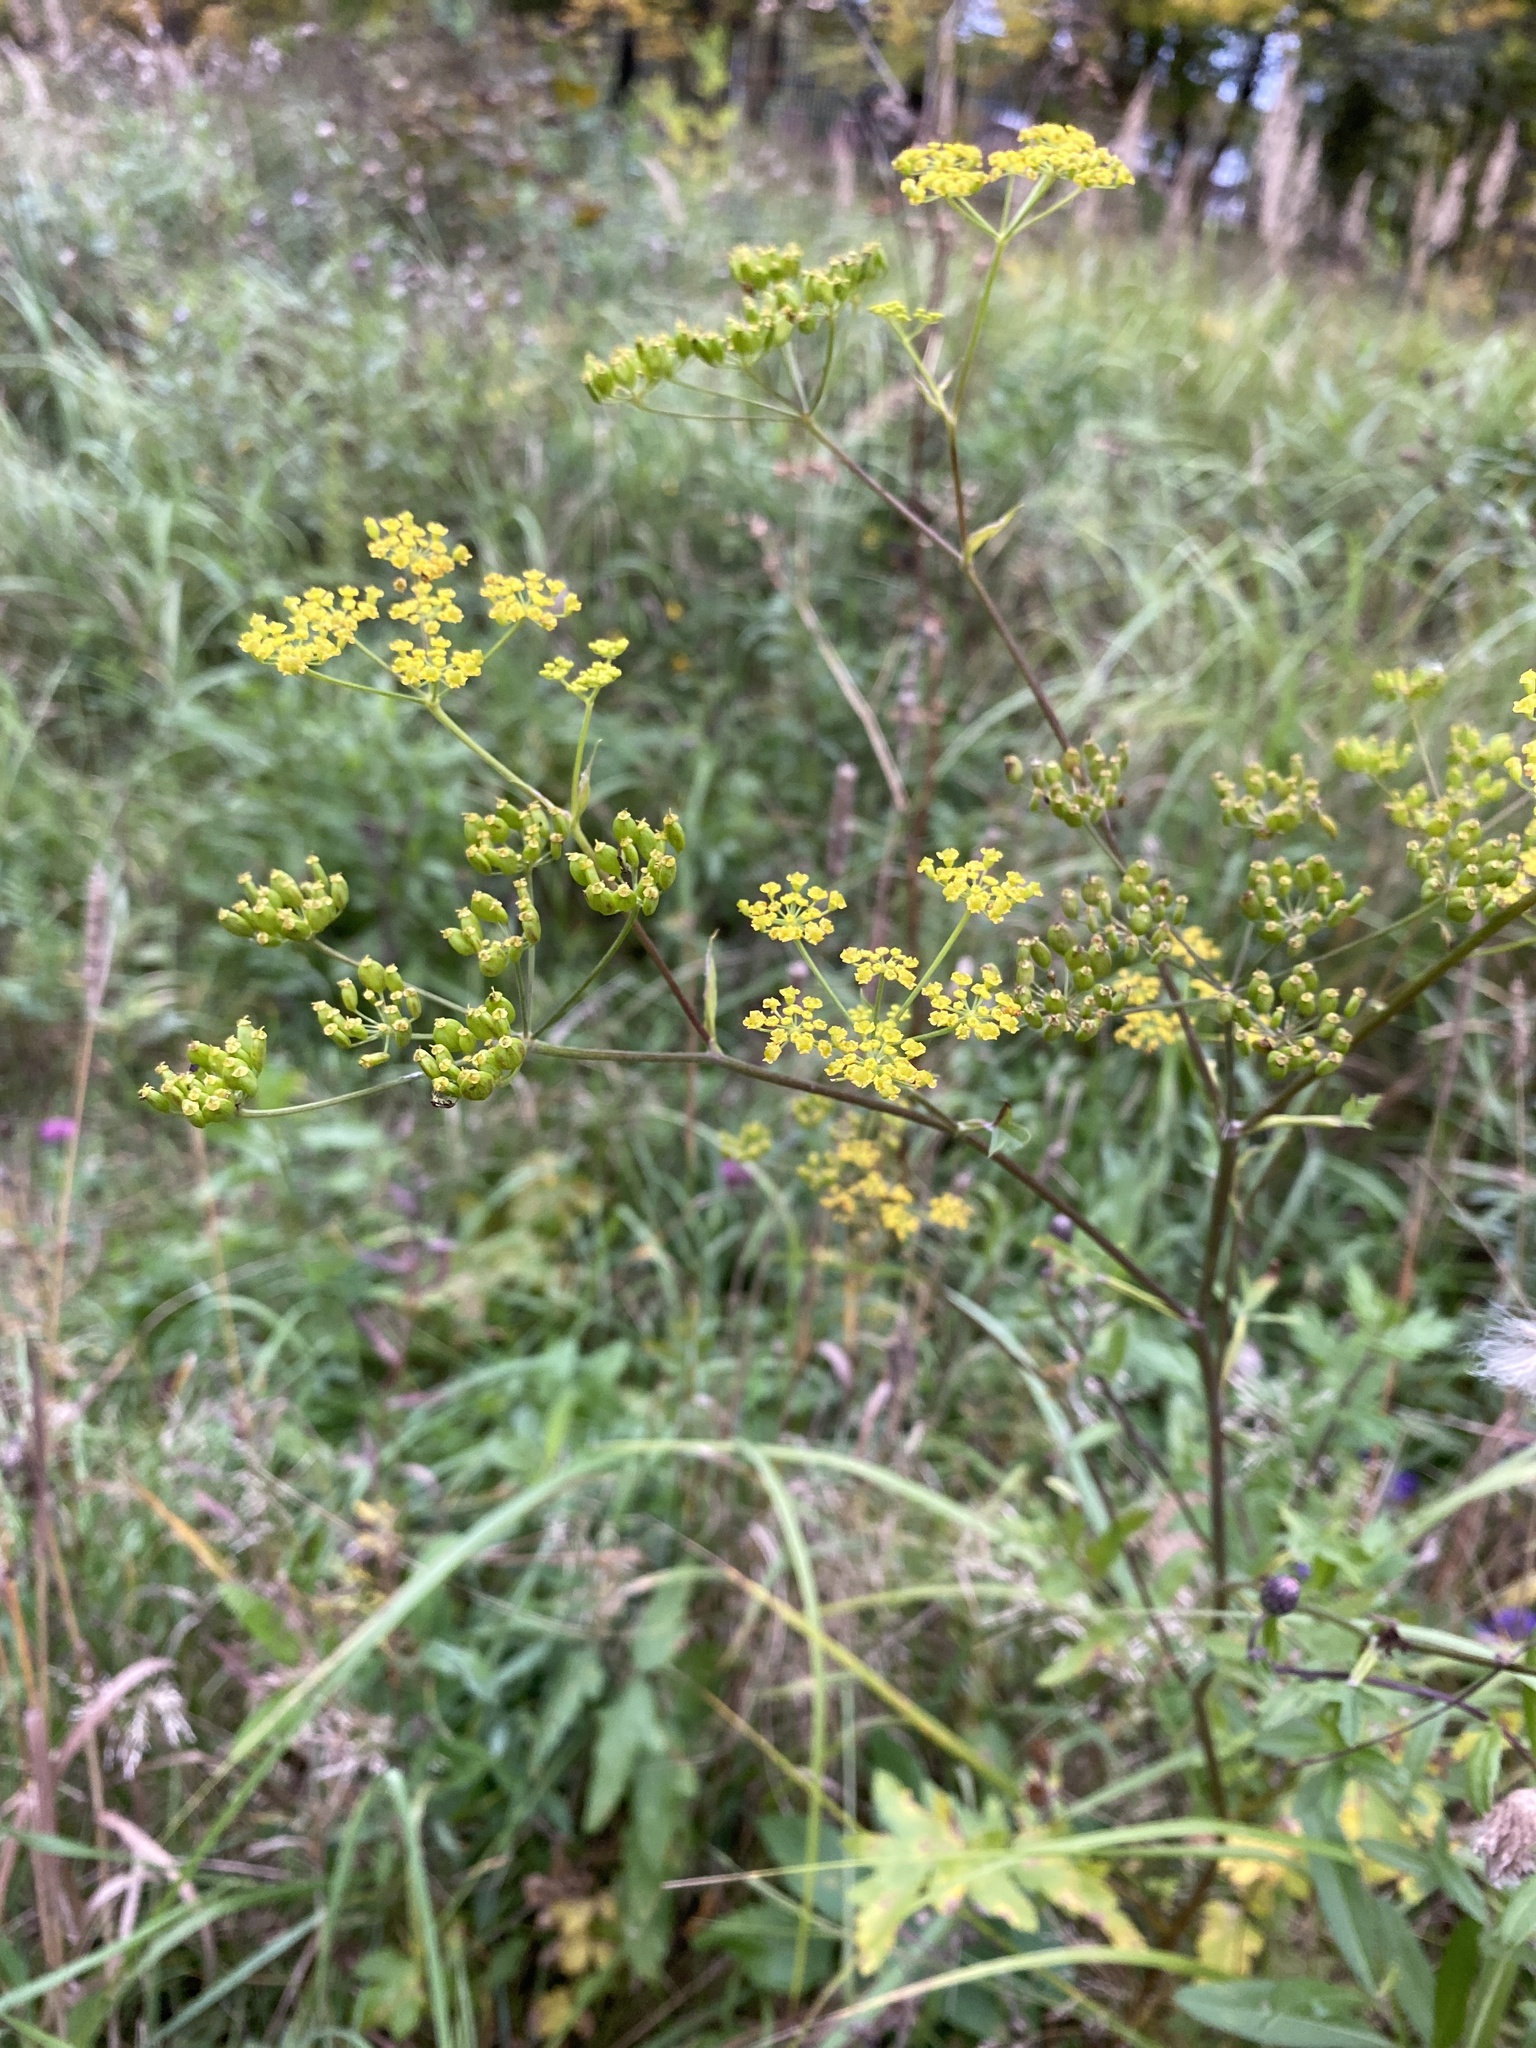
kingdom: Plantae
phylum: Tracheophyta
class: Magnoliopsida
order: Apiales
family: Apiaceae
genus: Pastinaca
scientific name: Pastinaca sativa
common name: Wild parsnip
